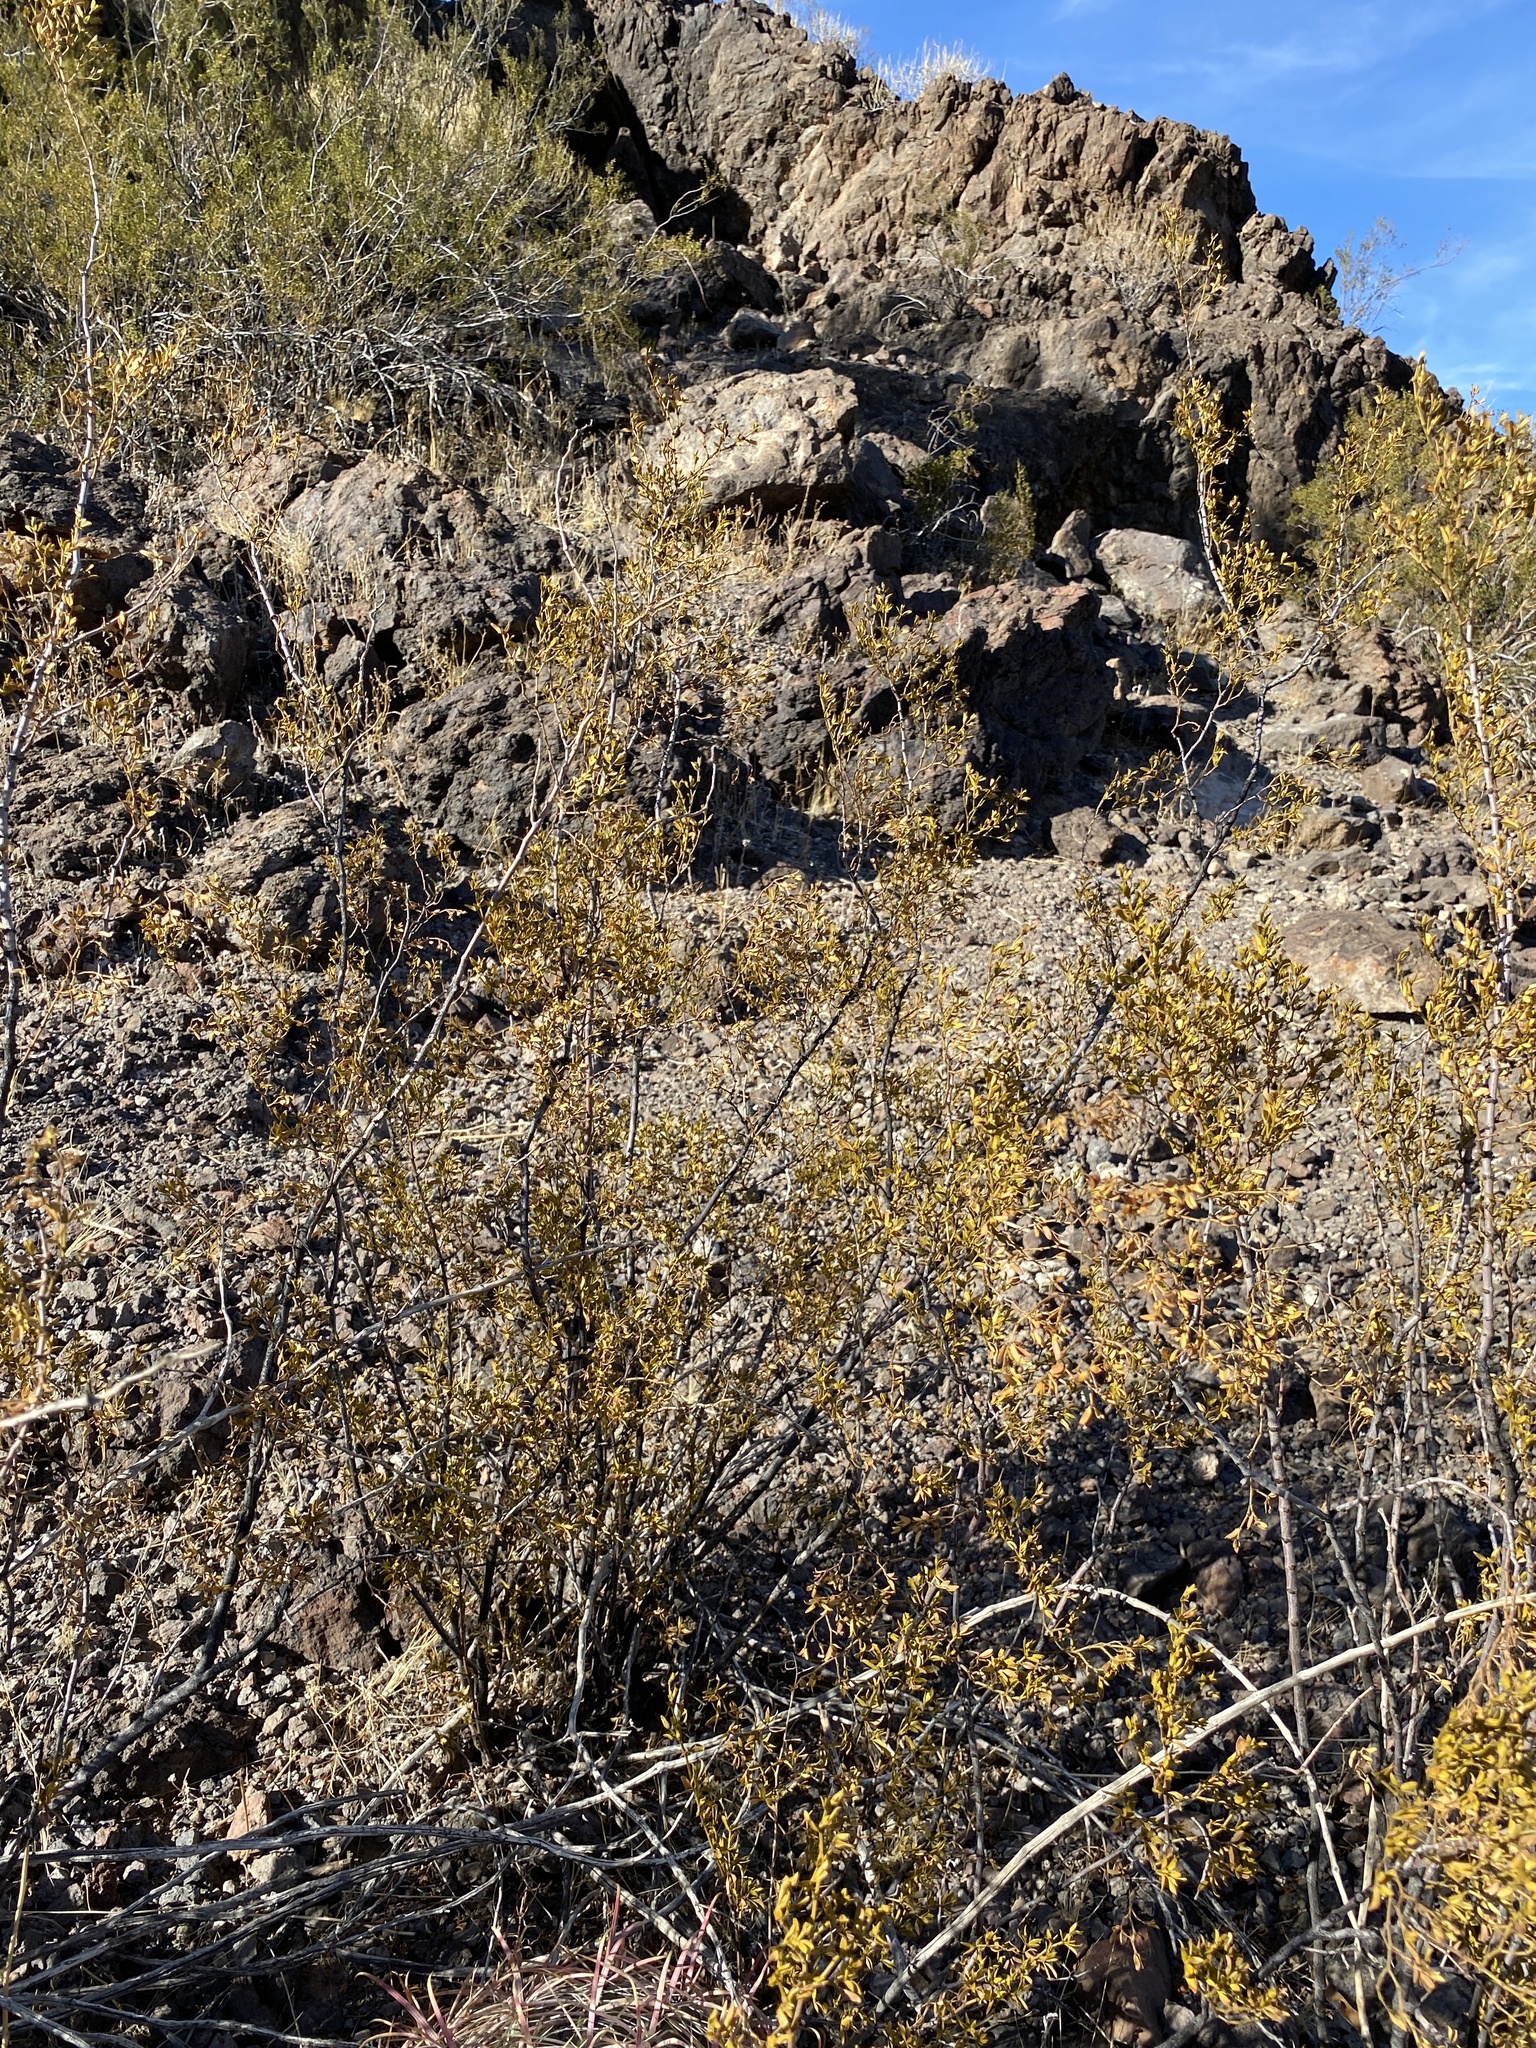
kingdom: Plantae
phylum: Tracheophyta
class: Magnoliopsida
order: Zygophyllales
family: Zygophyllaceae
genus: Larrea
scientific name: Larrea tridentata
